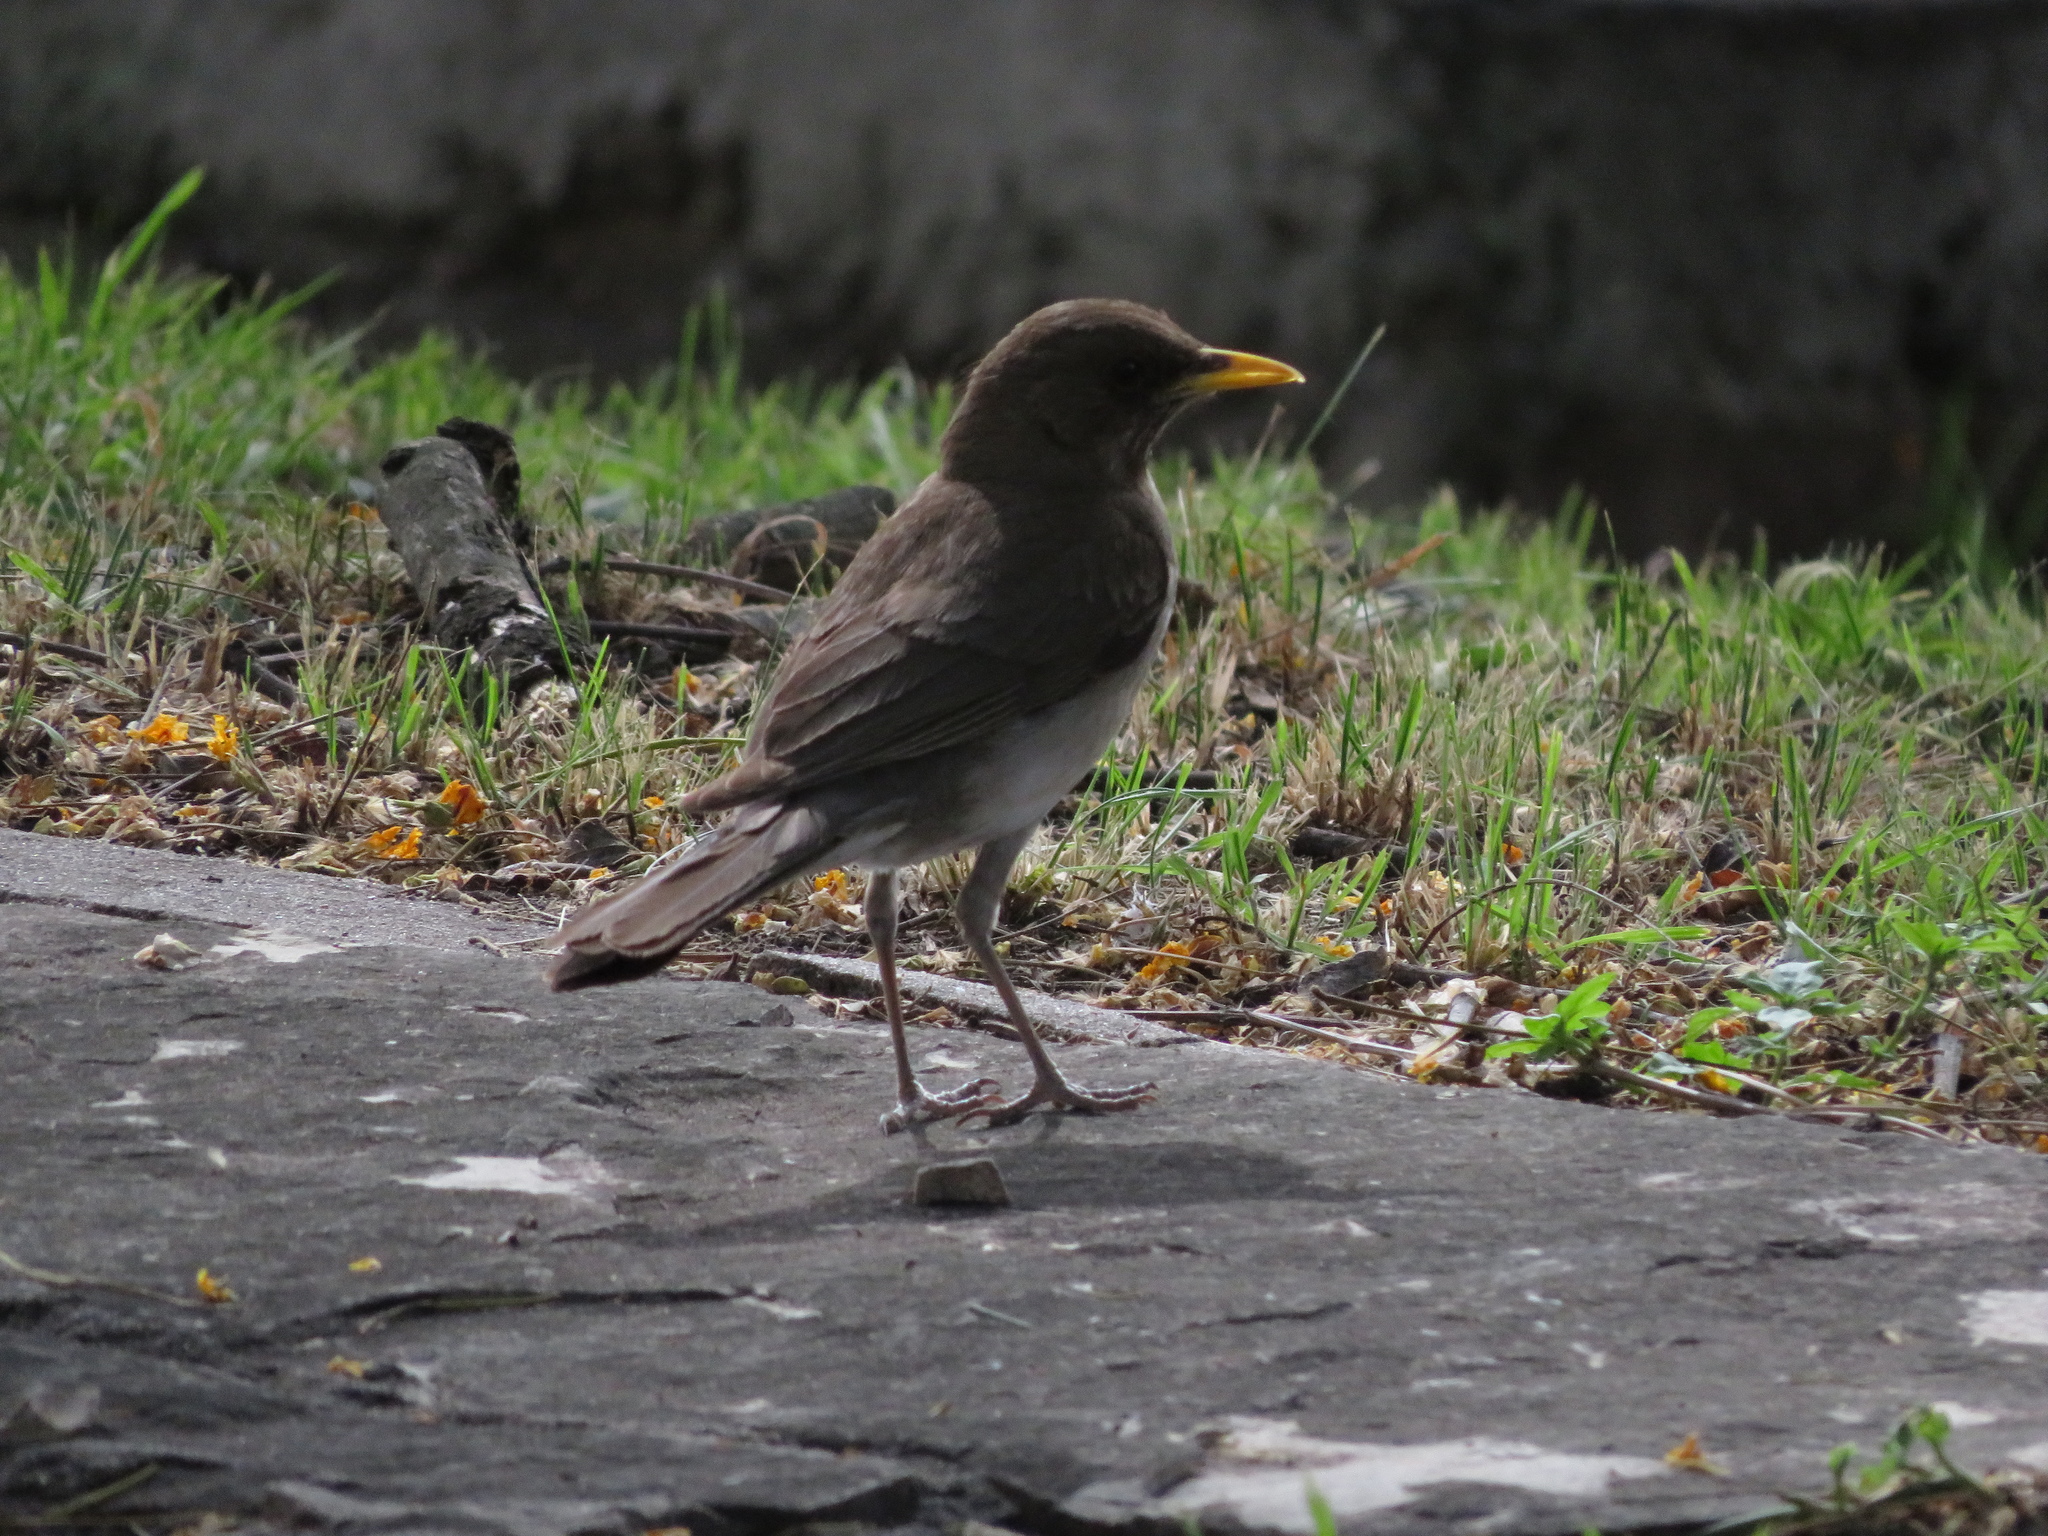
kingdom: Animalia
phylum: Chordata
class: Aves
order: Passeriformes
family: Turdidae
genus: Turdus
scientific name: Turdus amaurochalinus
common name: Creamy-bellied thrush
